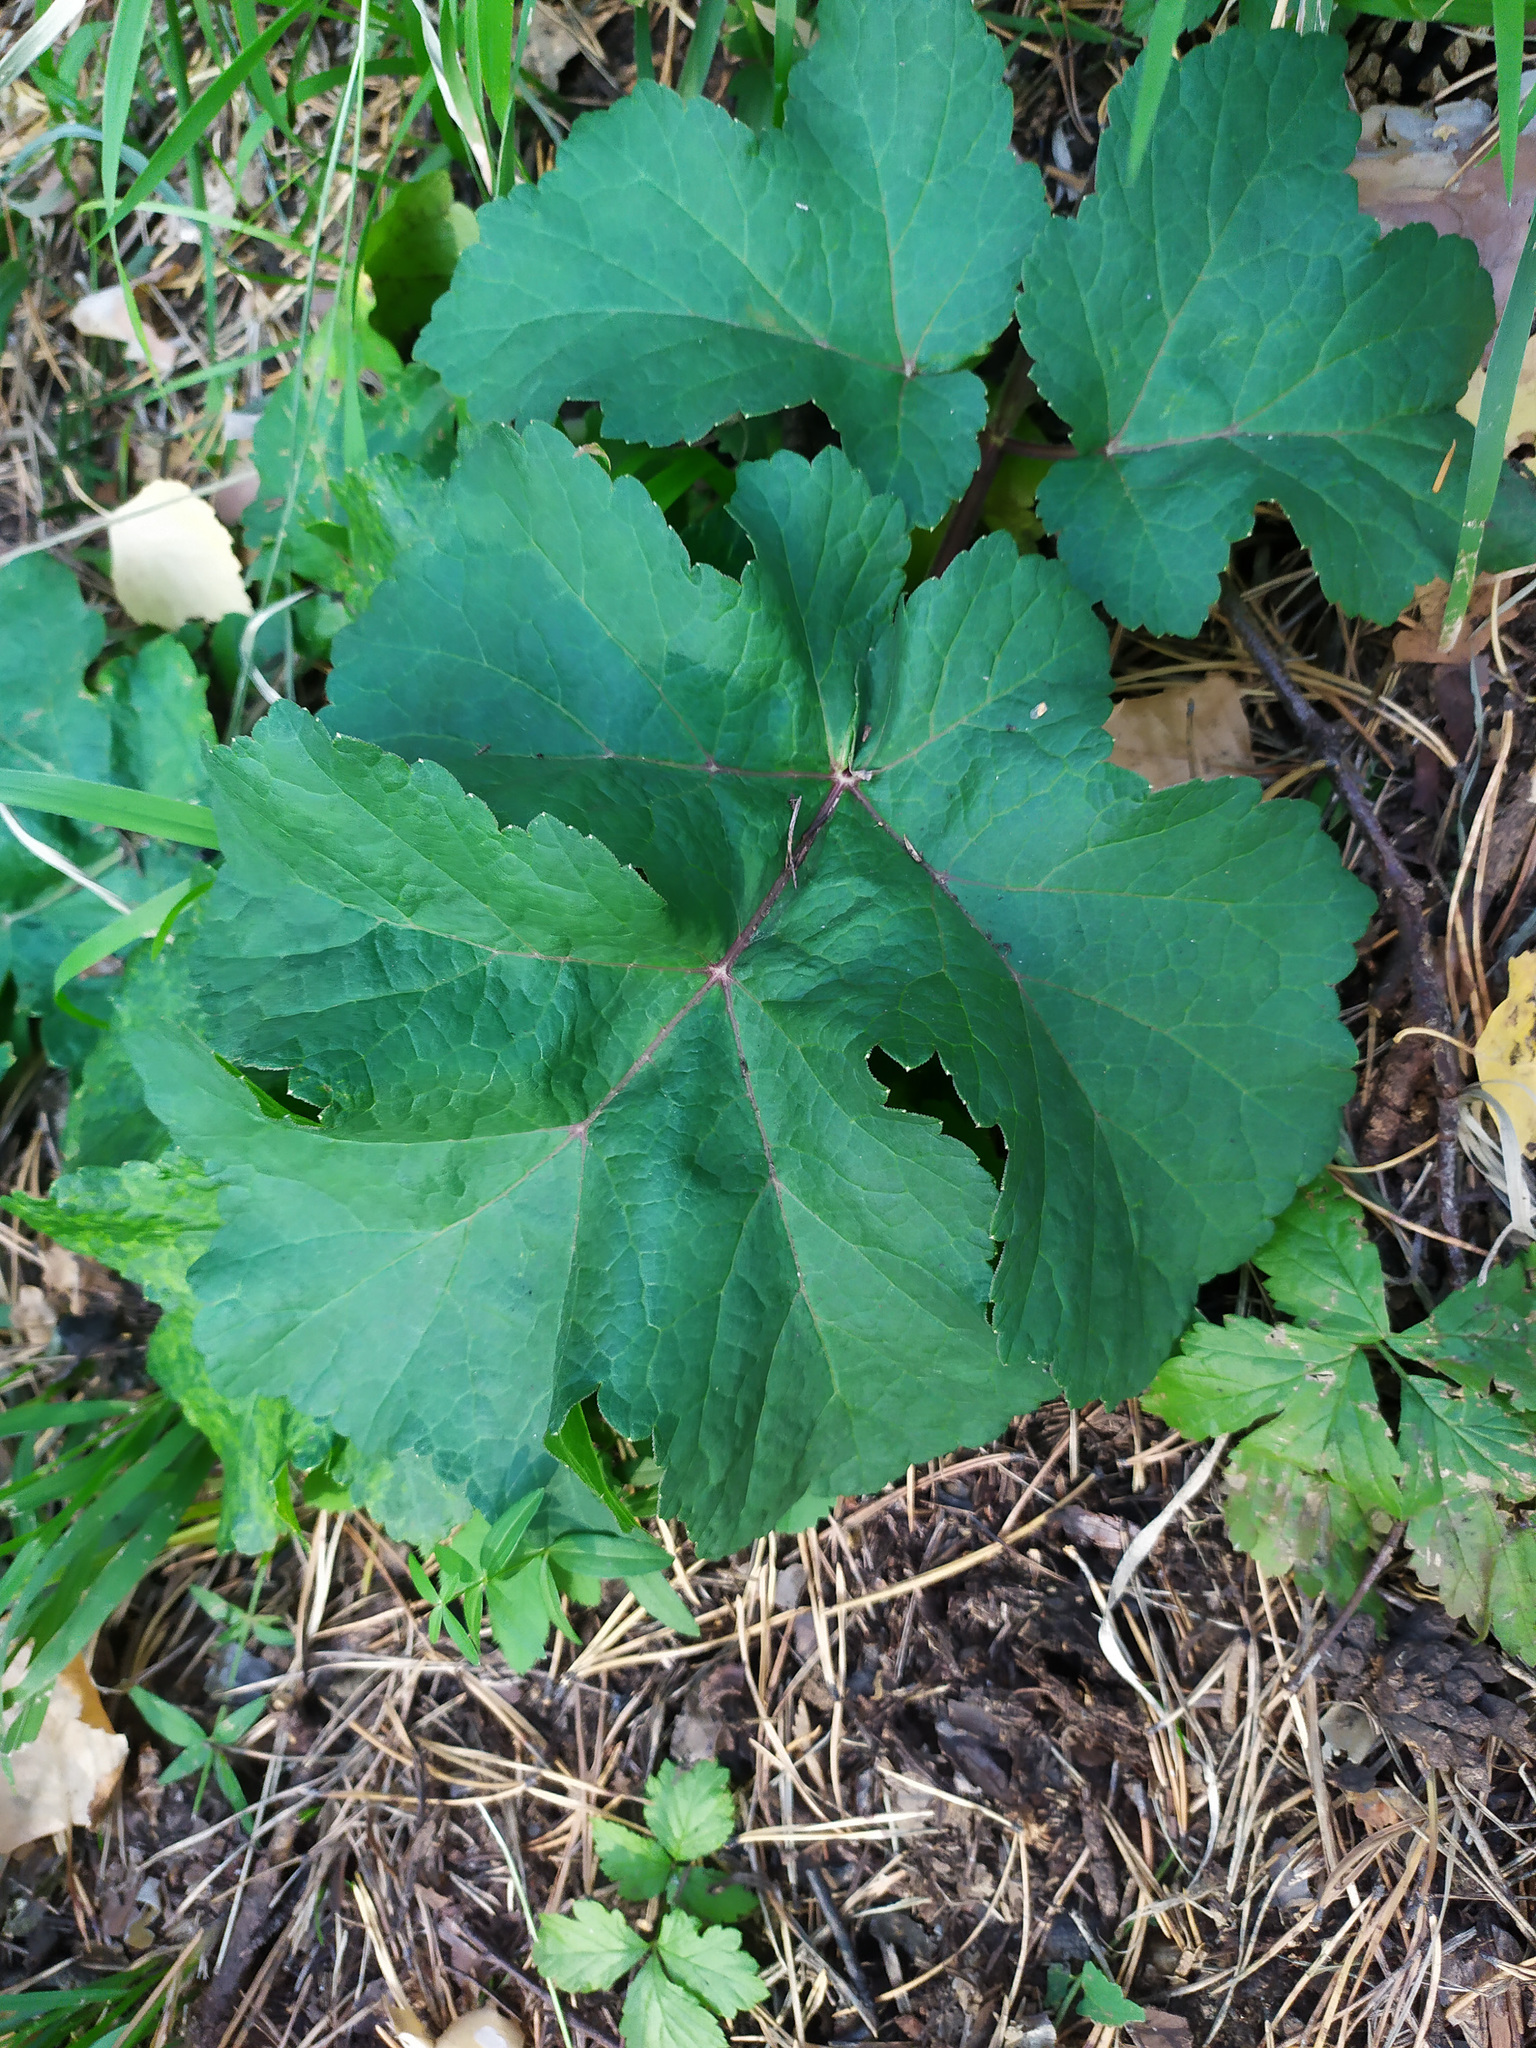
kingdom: Plantae
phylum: Tracheophyta
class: Magnoliopsida
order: Apiales
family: Apiaceae
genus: Heracleum
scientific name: Heracleum sphondylium
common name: Hogweed
